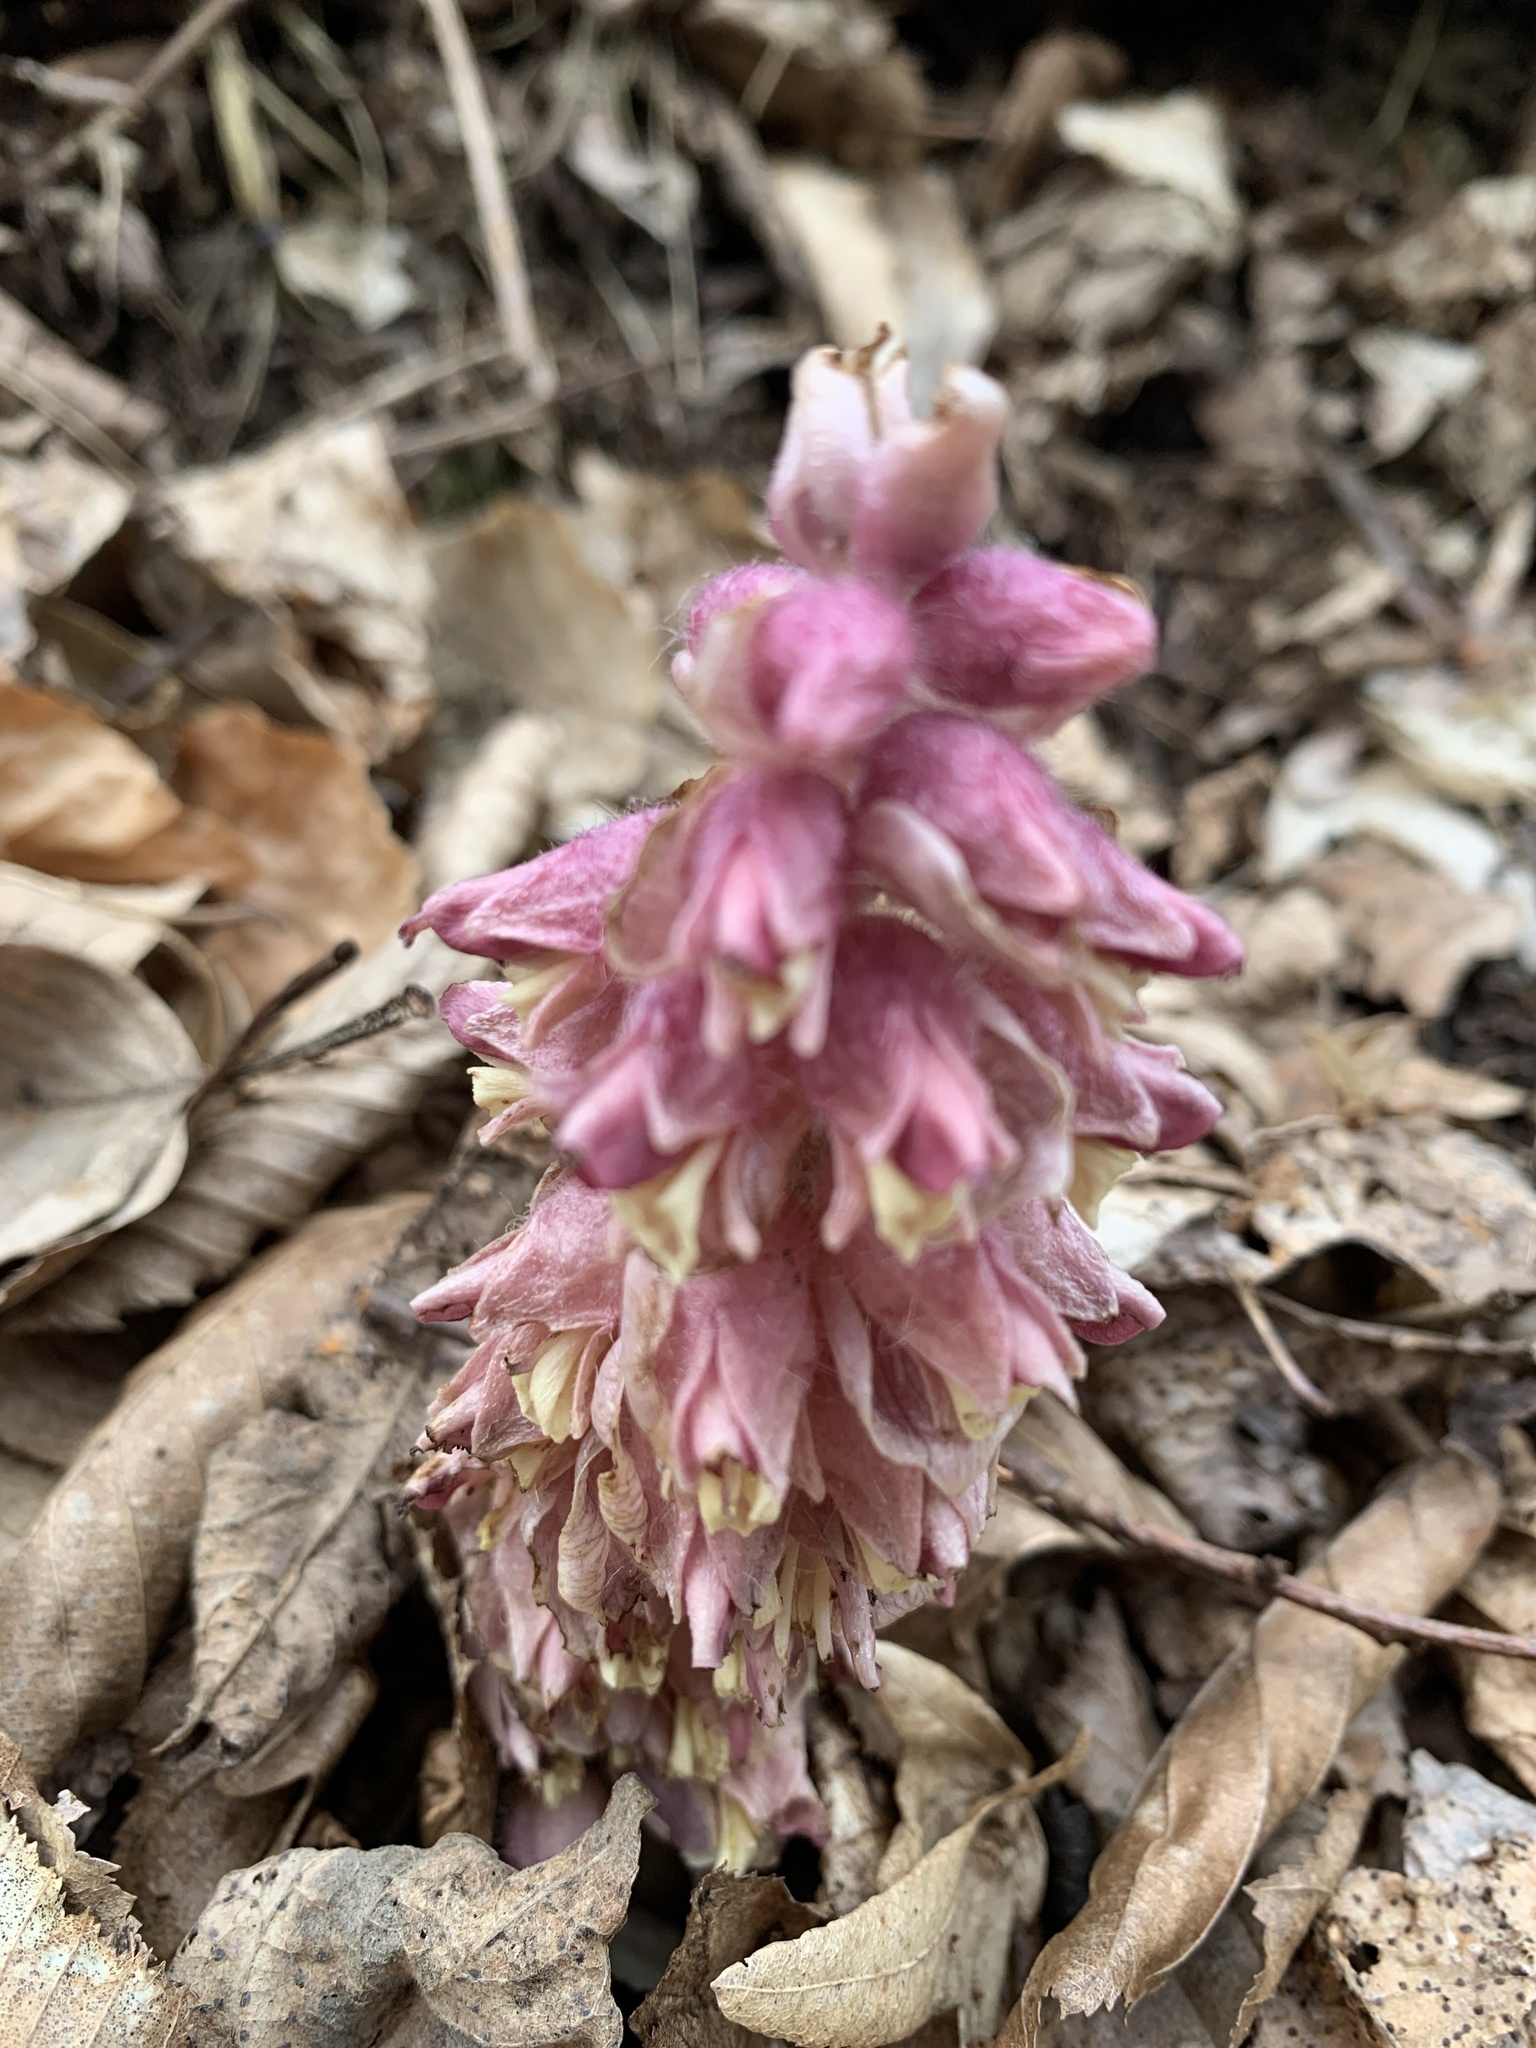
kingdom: Plantae
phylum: Tracheophyta
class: Magnoliopsida
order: Lamiales
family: Orobanchaceae
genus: Lathraea
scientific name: Lathraea squamaria
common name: Toothwort
